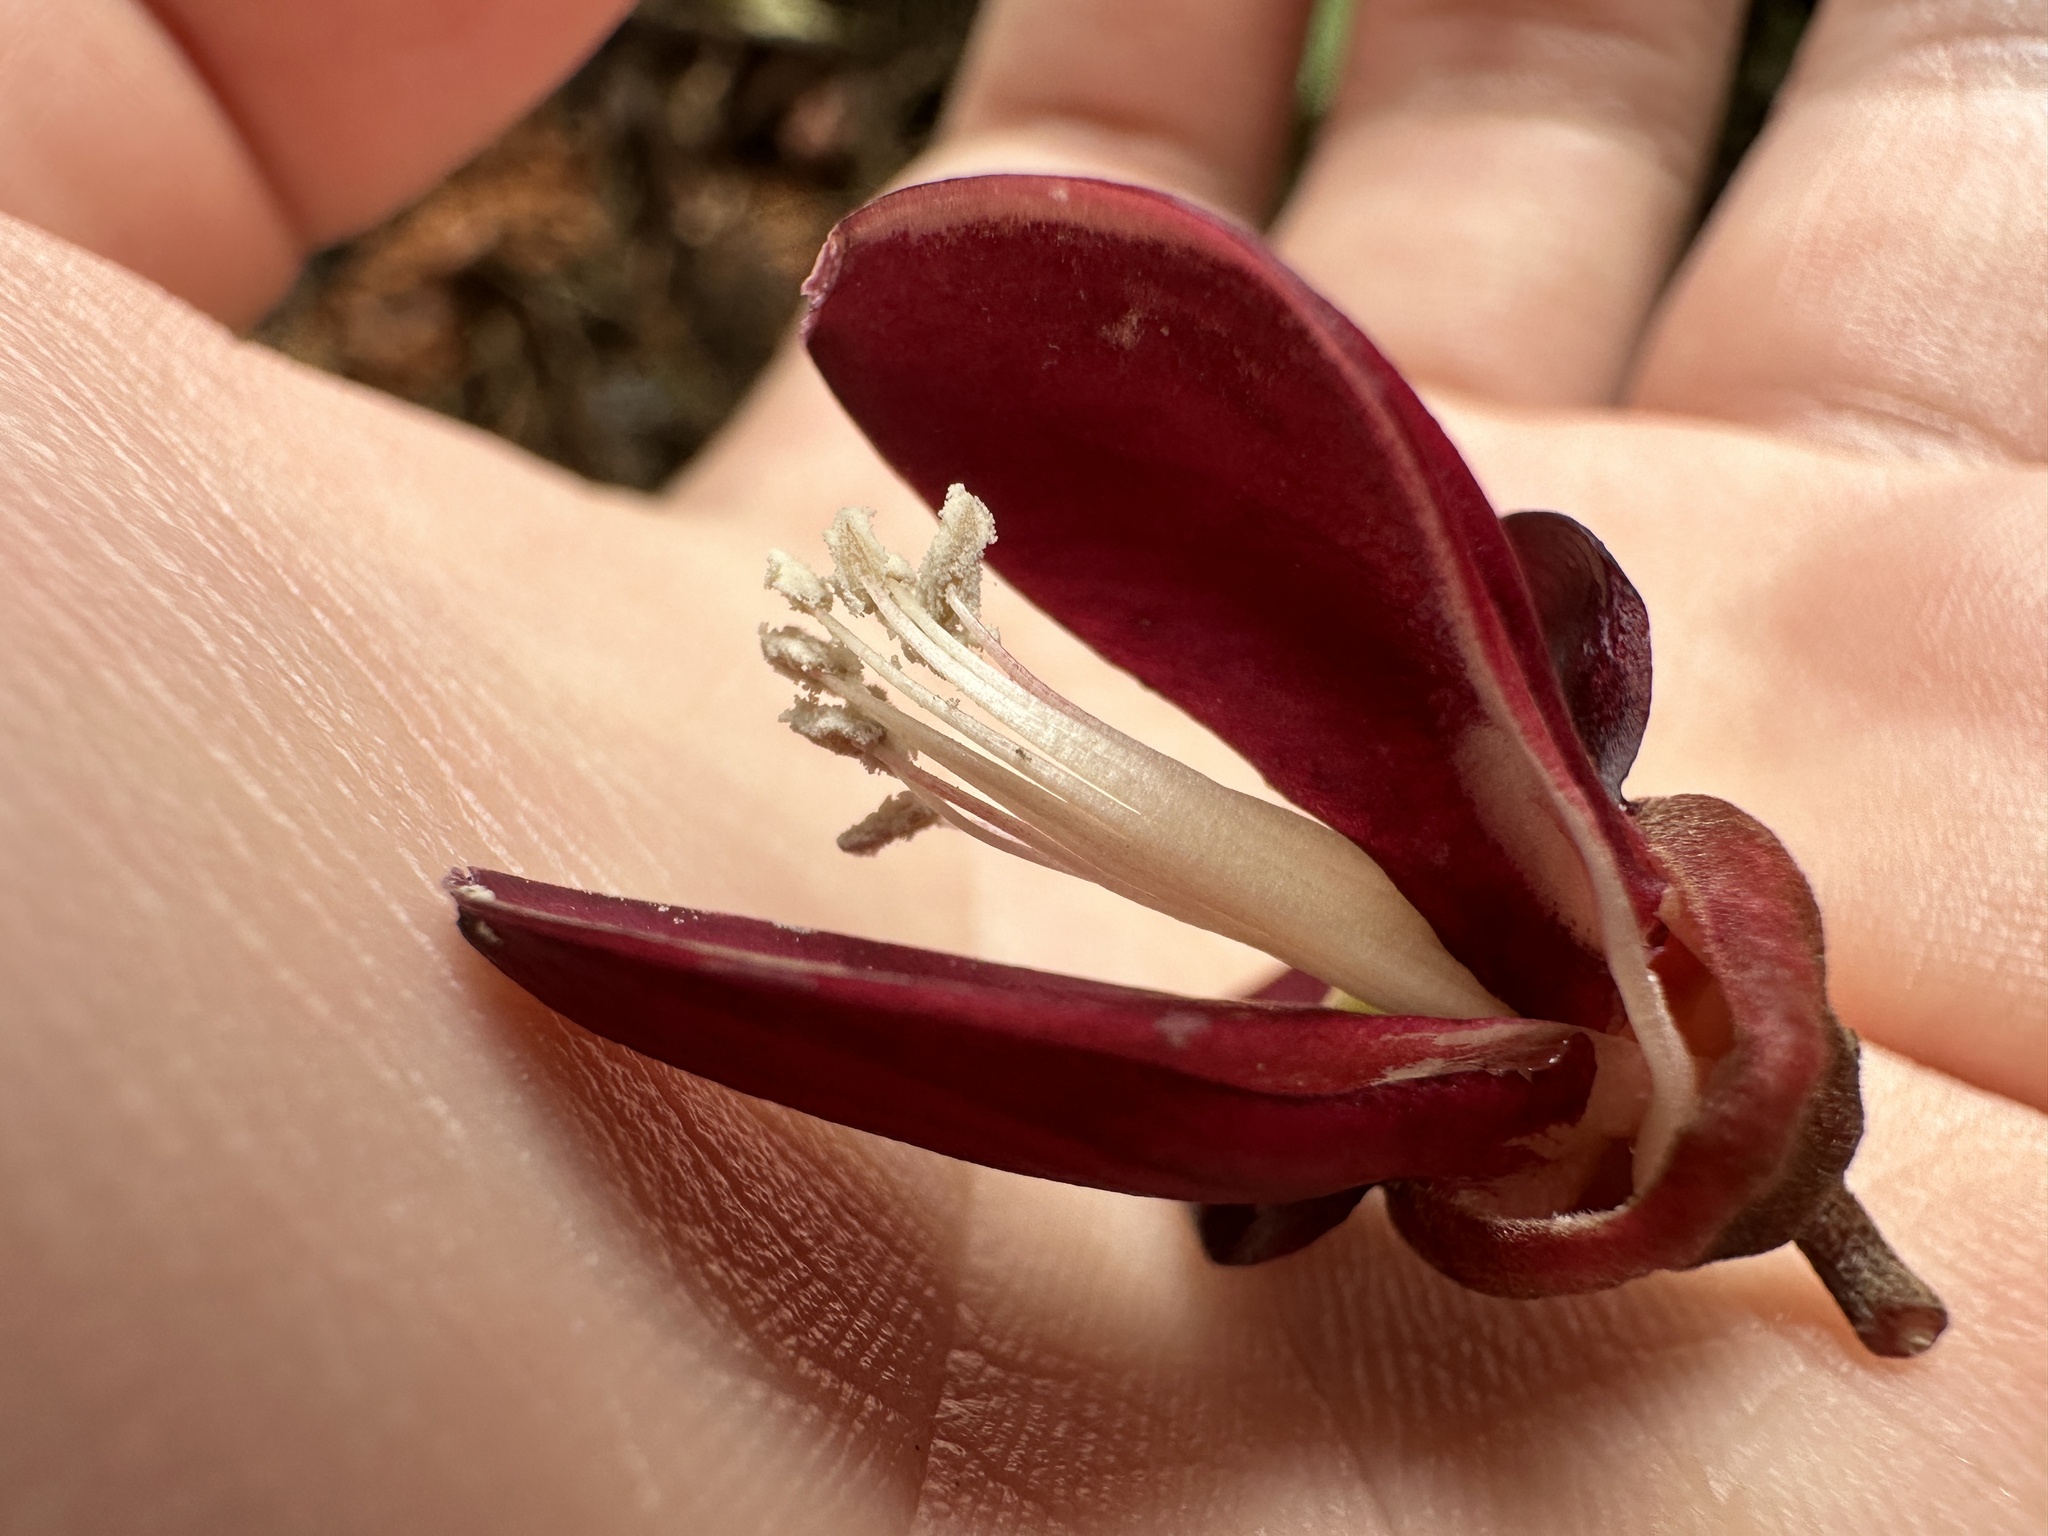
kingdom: Plantae
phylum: Tracheophyta
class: Magnoliopsida
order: Fabales
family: Fabaceae
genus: Adinobotrys
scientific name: Adinobotrys atropurpureus
